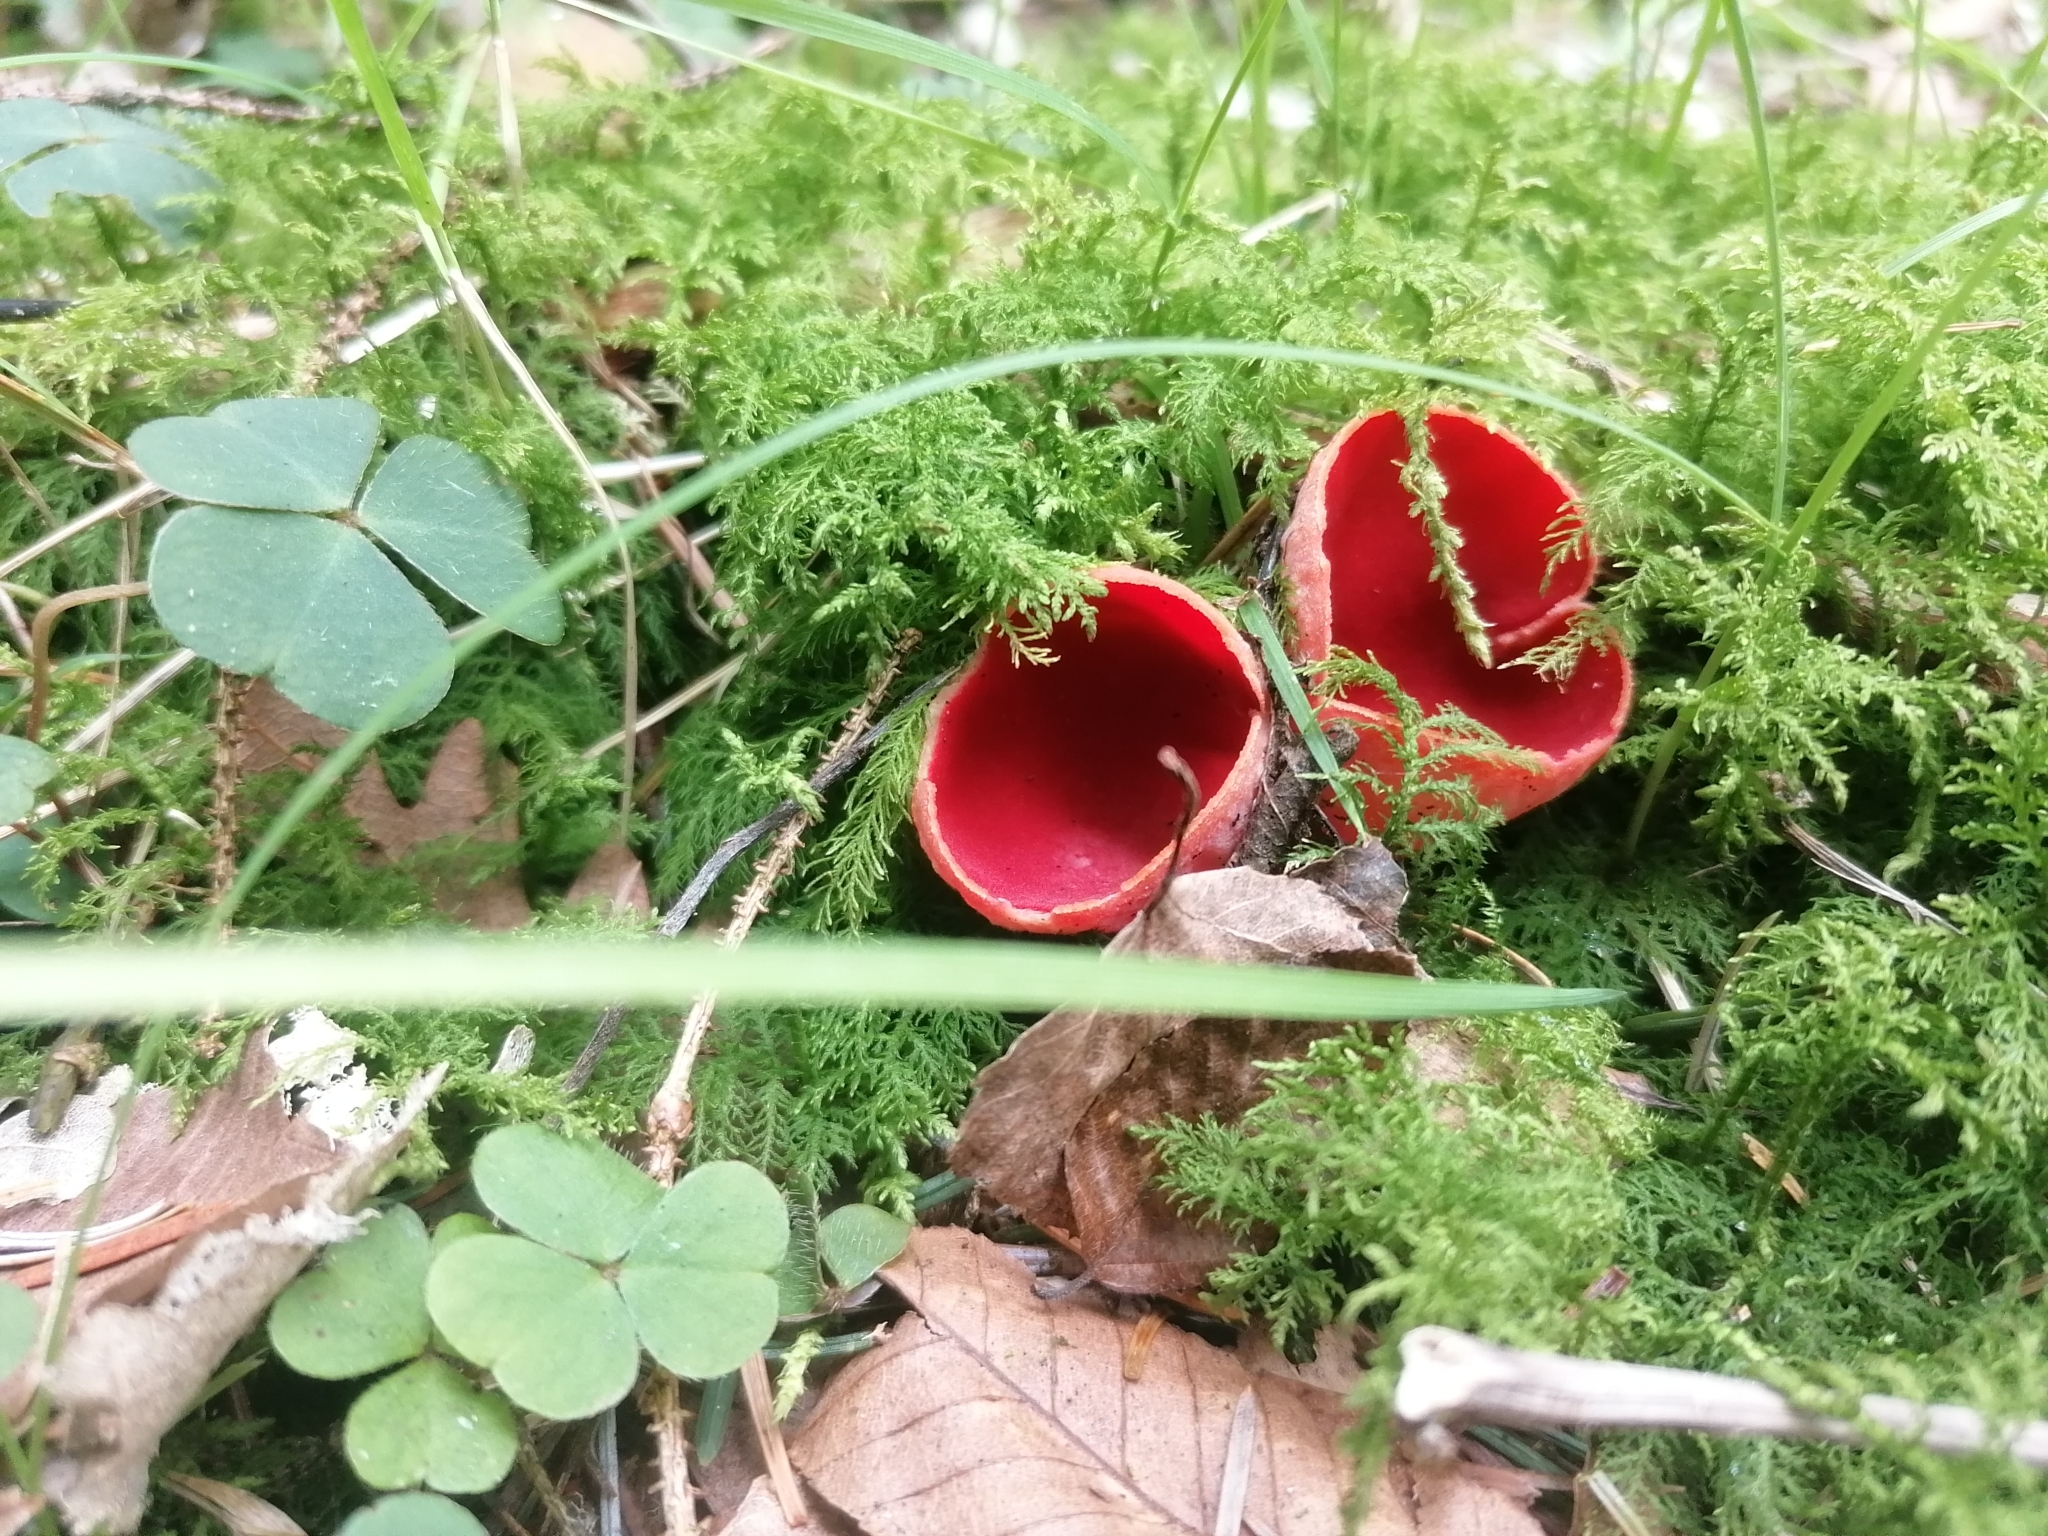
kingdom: Fungi
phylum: Ascomycota
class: Pezizomycetes
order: Pezizales
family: Sarcoscyphaceae
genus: Sarcoscypha
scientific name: Sarcoscypha
